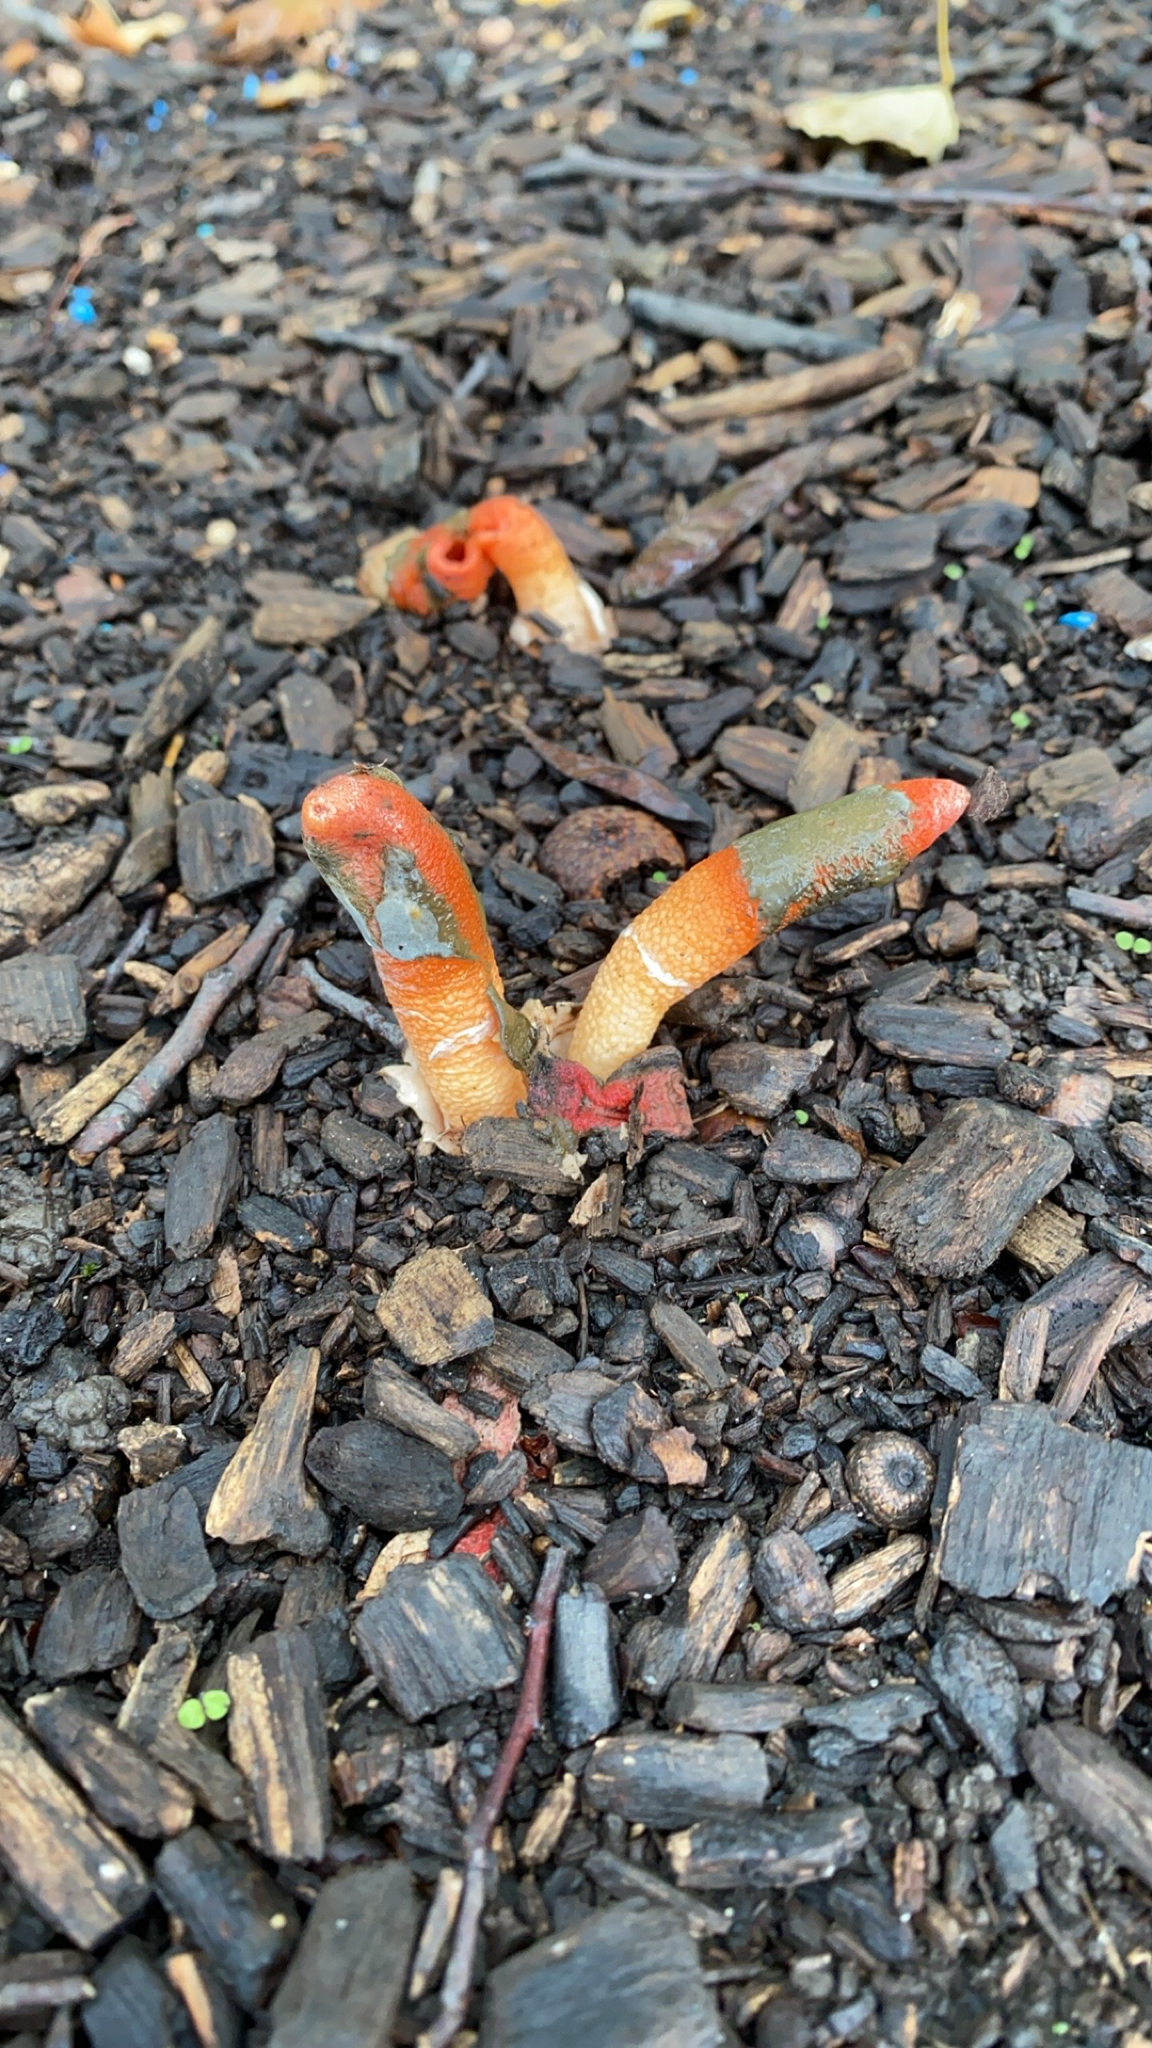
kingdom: Fungi
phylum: Basidiomycota
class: Agaricomycetes
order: Phallales
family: Phallaceae
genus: Mutinus
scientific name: Mutinus elegans
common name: Devil's dipstick
